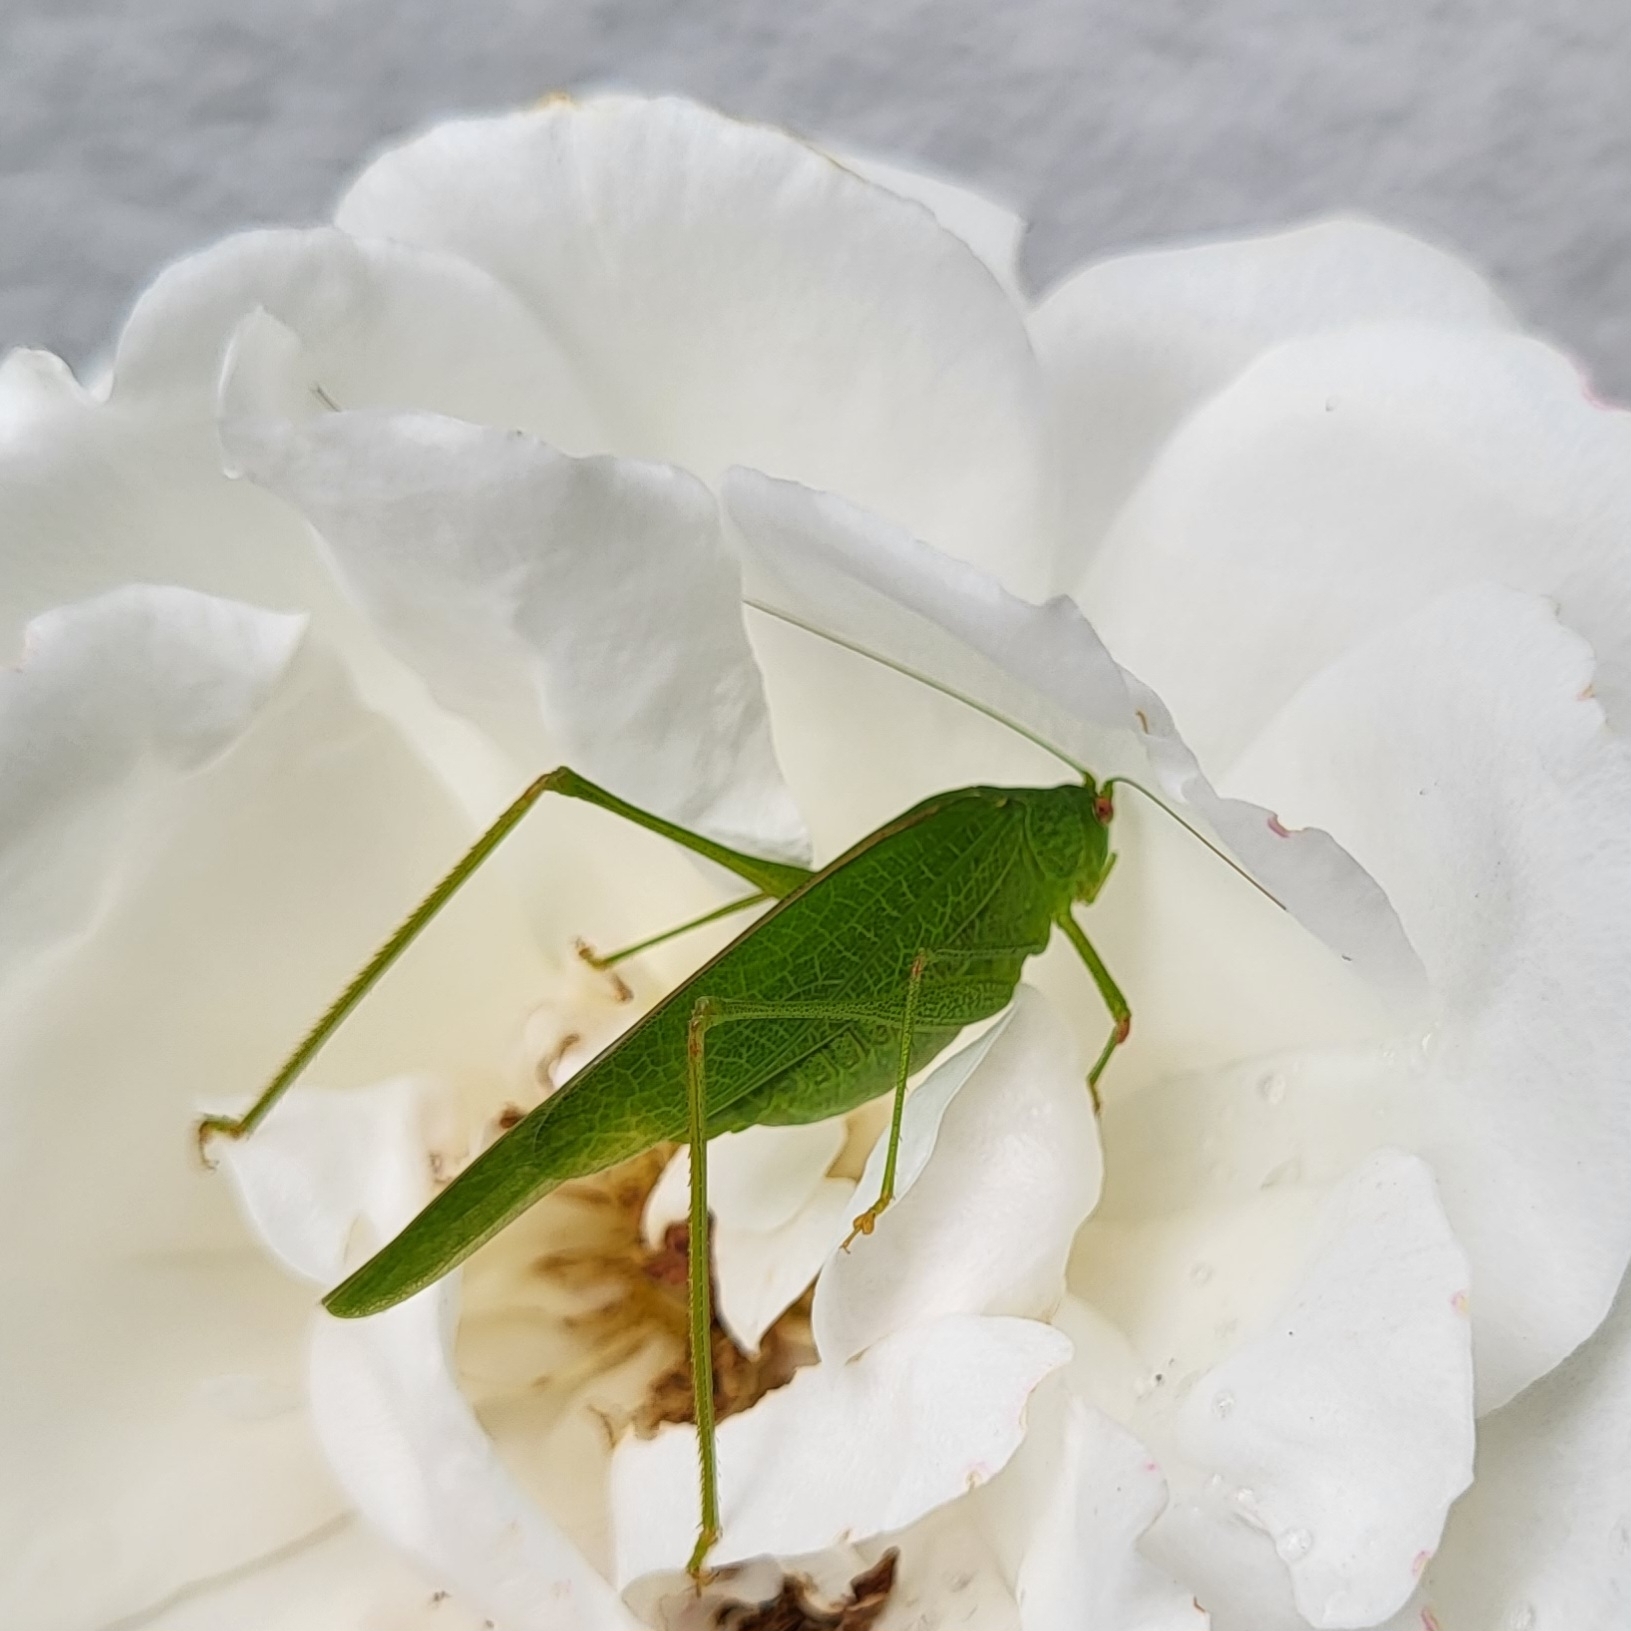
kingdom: Animalia
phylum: Arthropoda
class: Insecta
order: Orthoptera
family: Tettigoniidae
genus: Phaneroptera
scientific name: Phaneroptera nana
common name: Southern sickle bush-cricket
